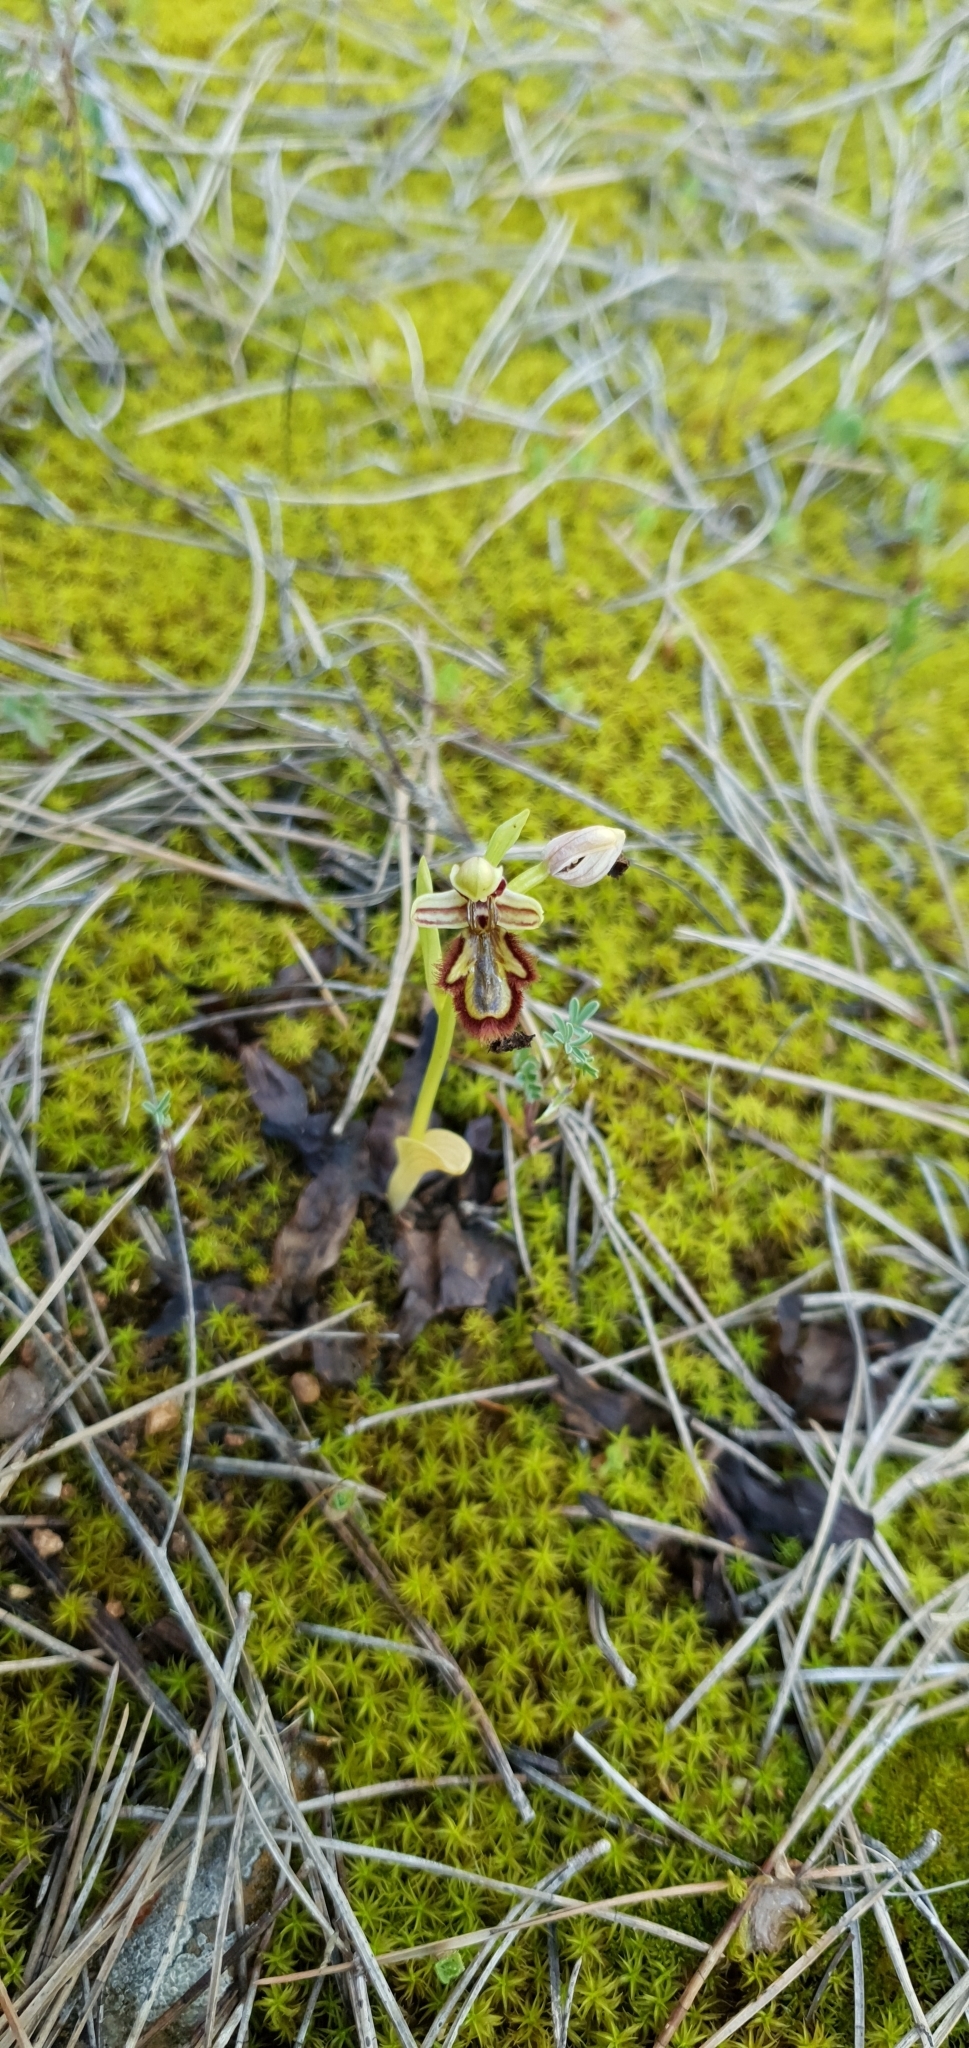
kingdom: Plantae
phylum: Tracheophyta
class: Liliopsida
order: Asparagales
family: Orchidaceae
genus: Ophrys
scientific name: Ophrys speculum
